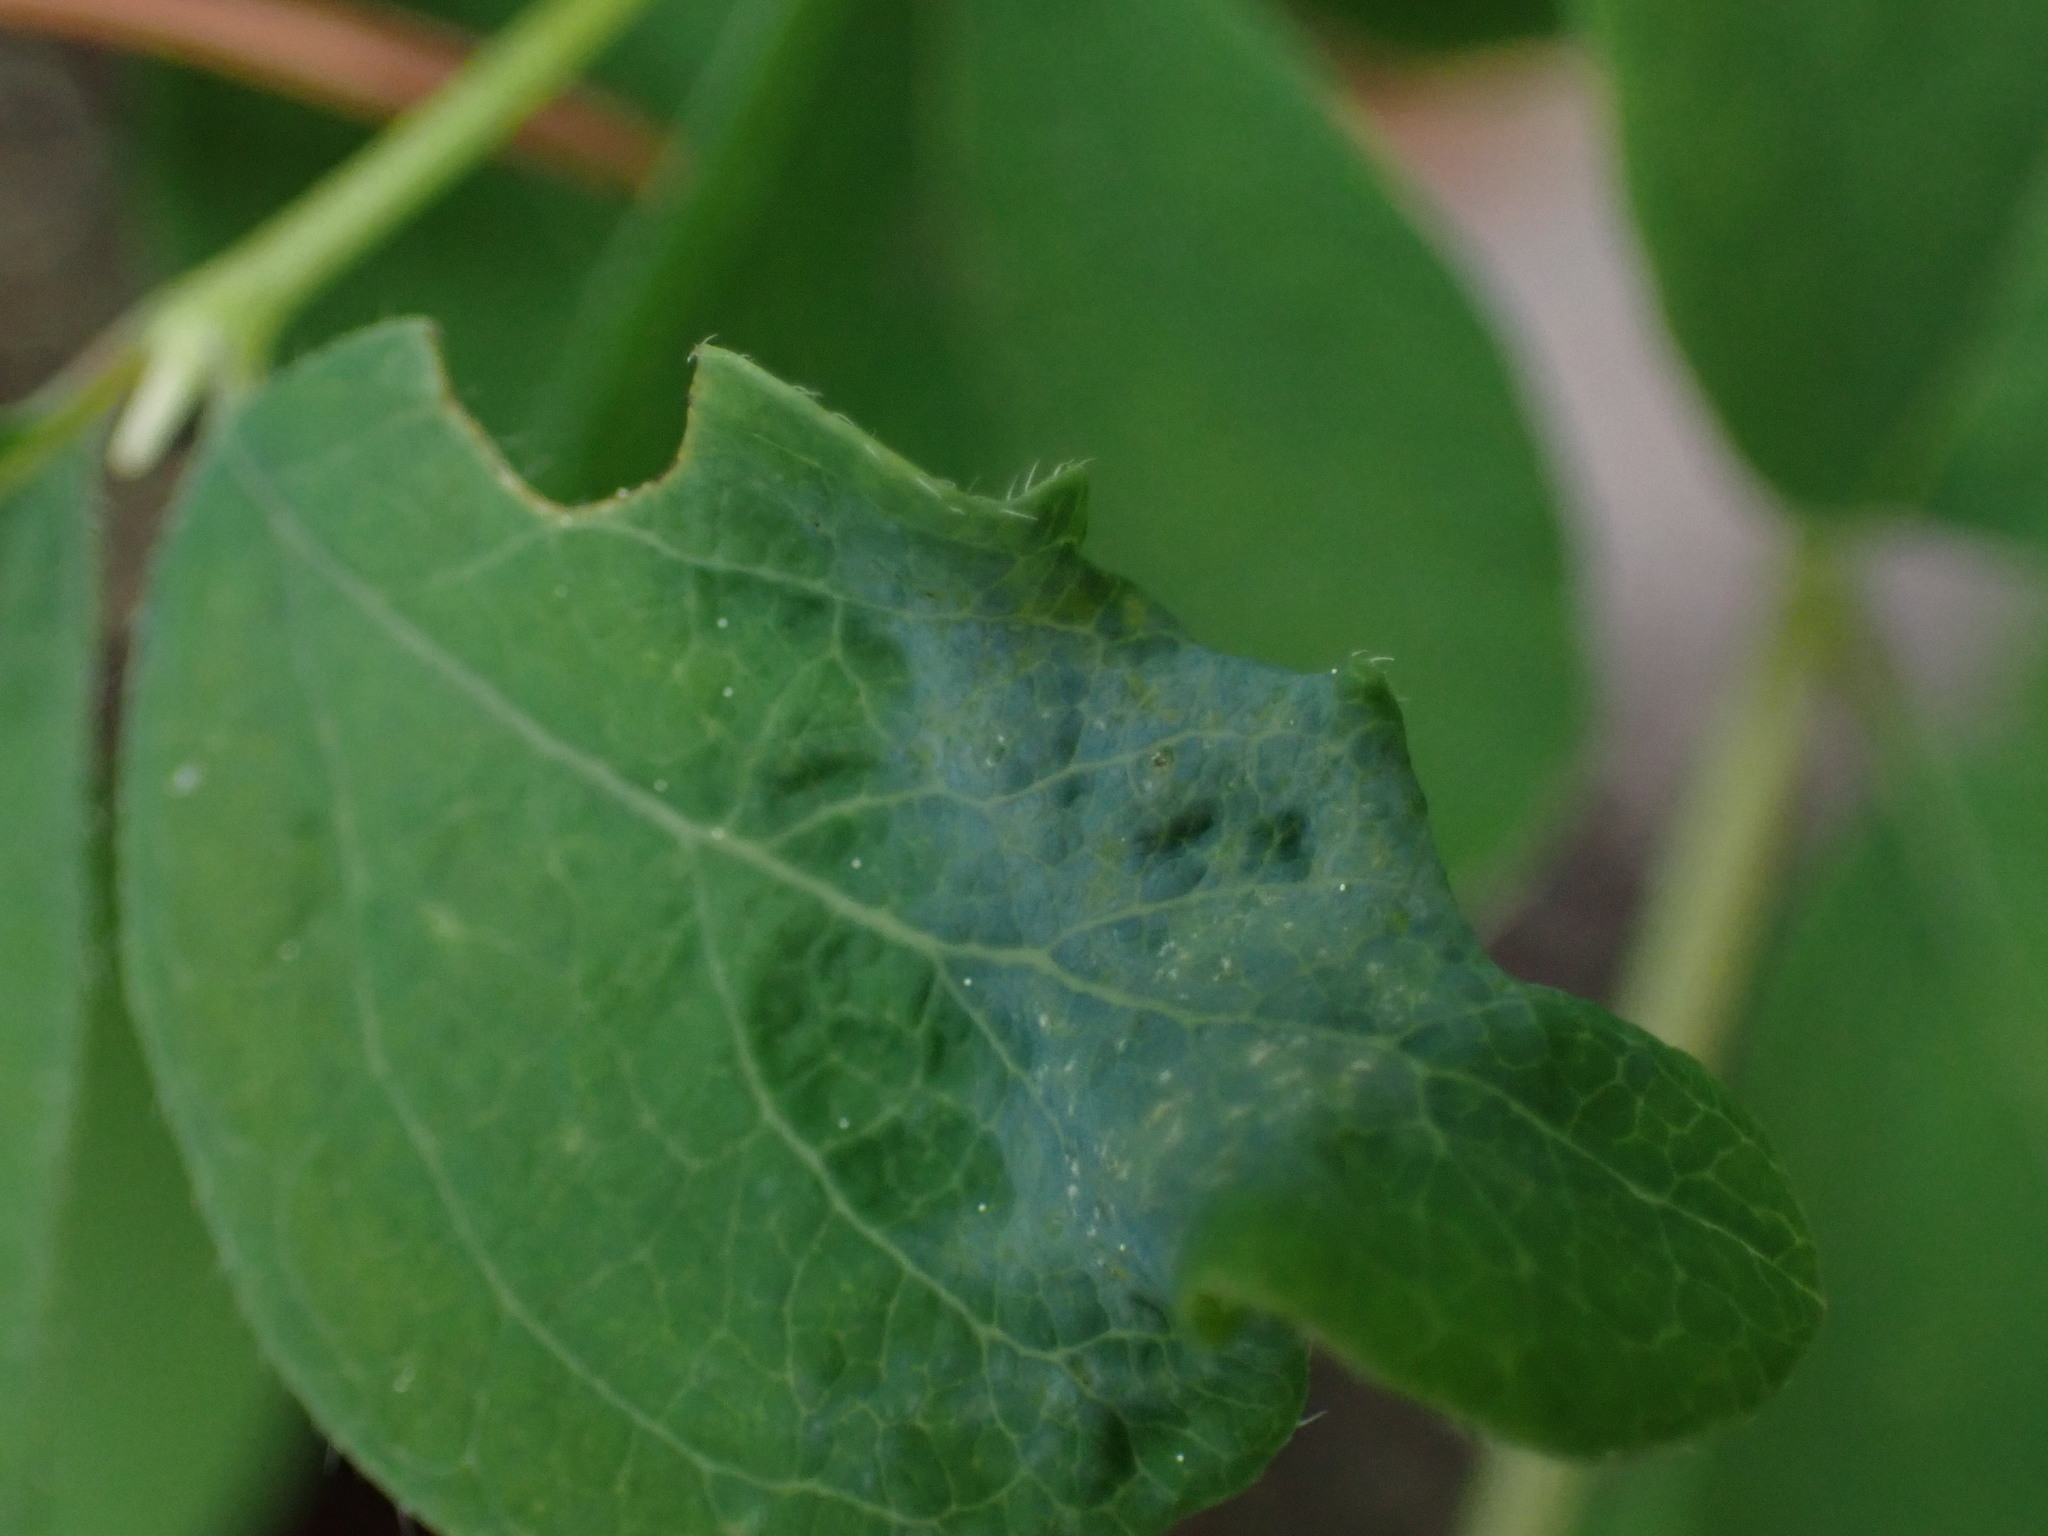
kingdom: Fungi
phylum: Ascomycota
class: Leotiomycetes
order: Helotiales
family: Erysiphaceae
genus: Erysiphe
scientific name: Erysiphe symphoricarpi
